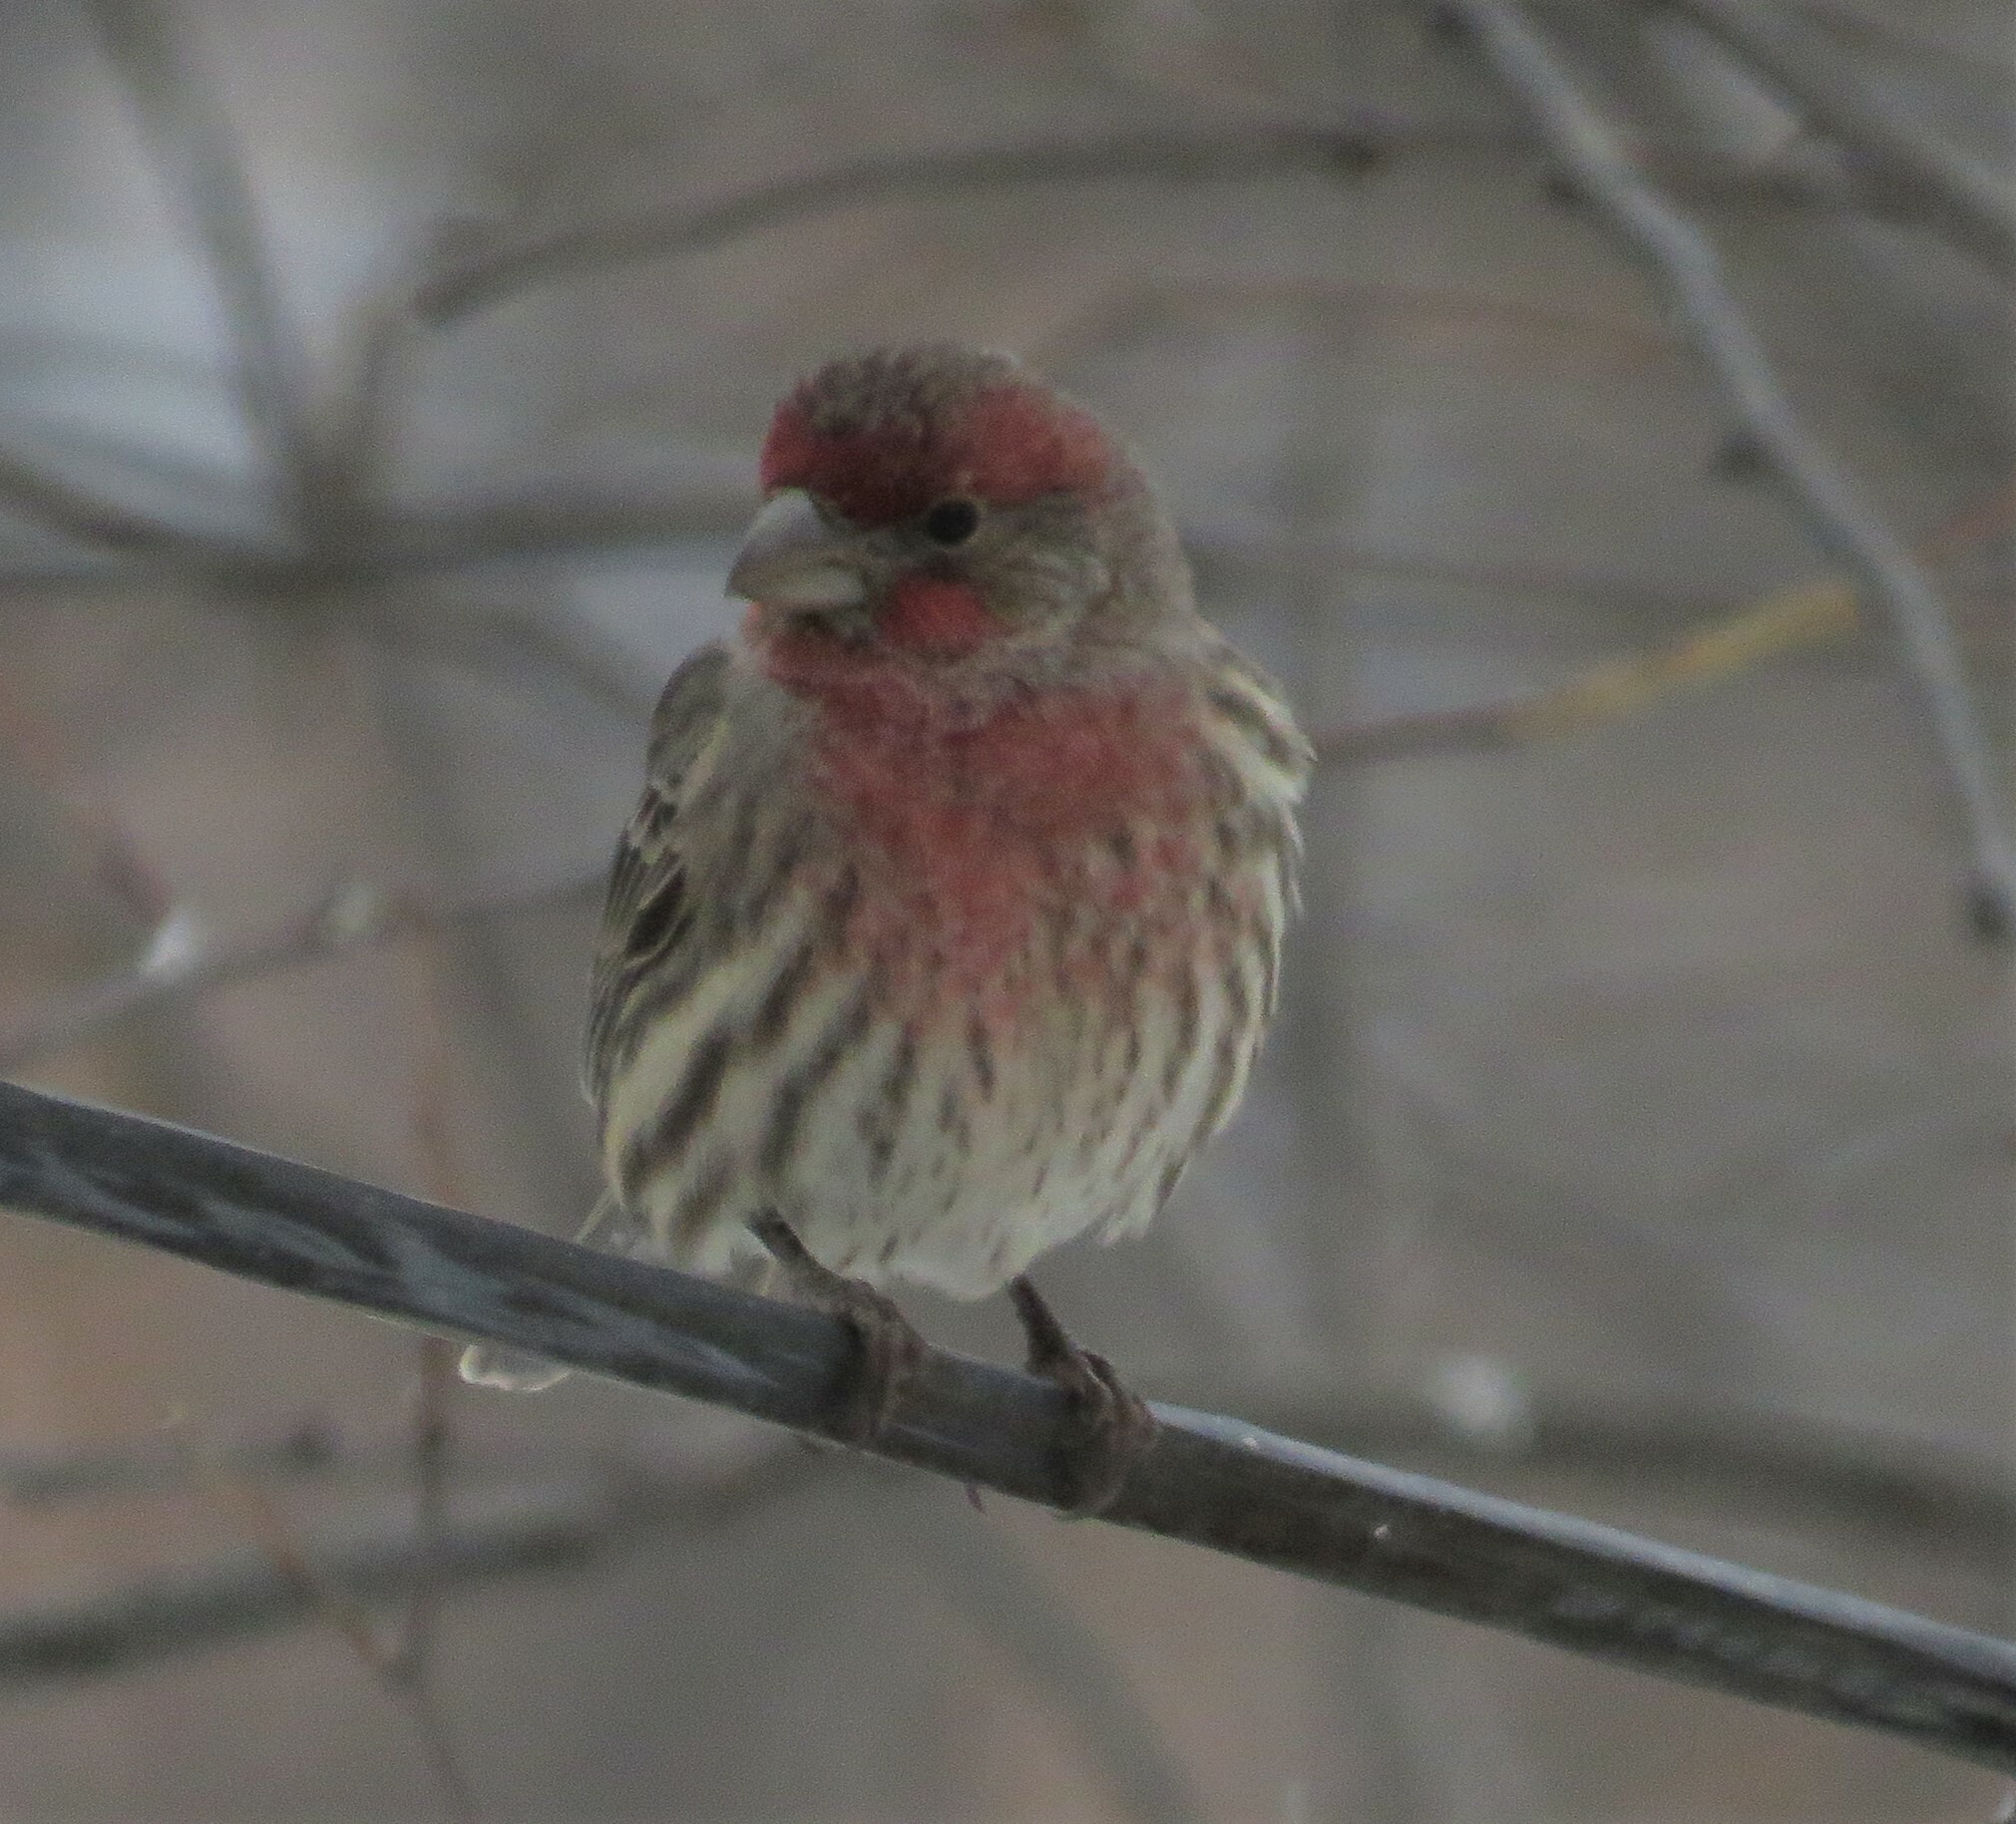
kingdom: Animalia
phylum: Chordata
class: Aves
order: Passeriformes
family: Fringillidae
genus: Haemorhous
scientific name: Haemorhous mexicanus
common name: House finch
